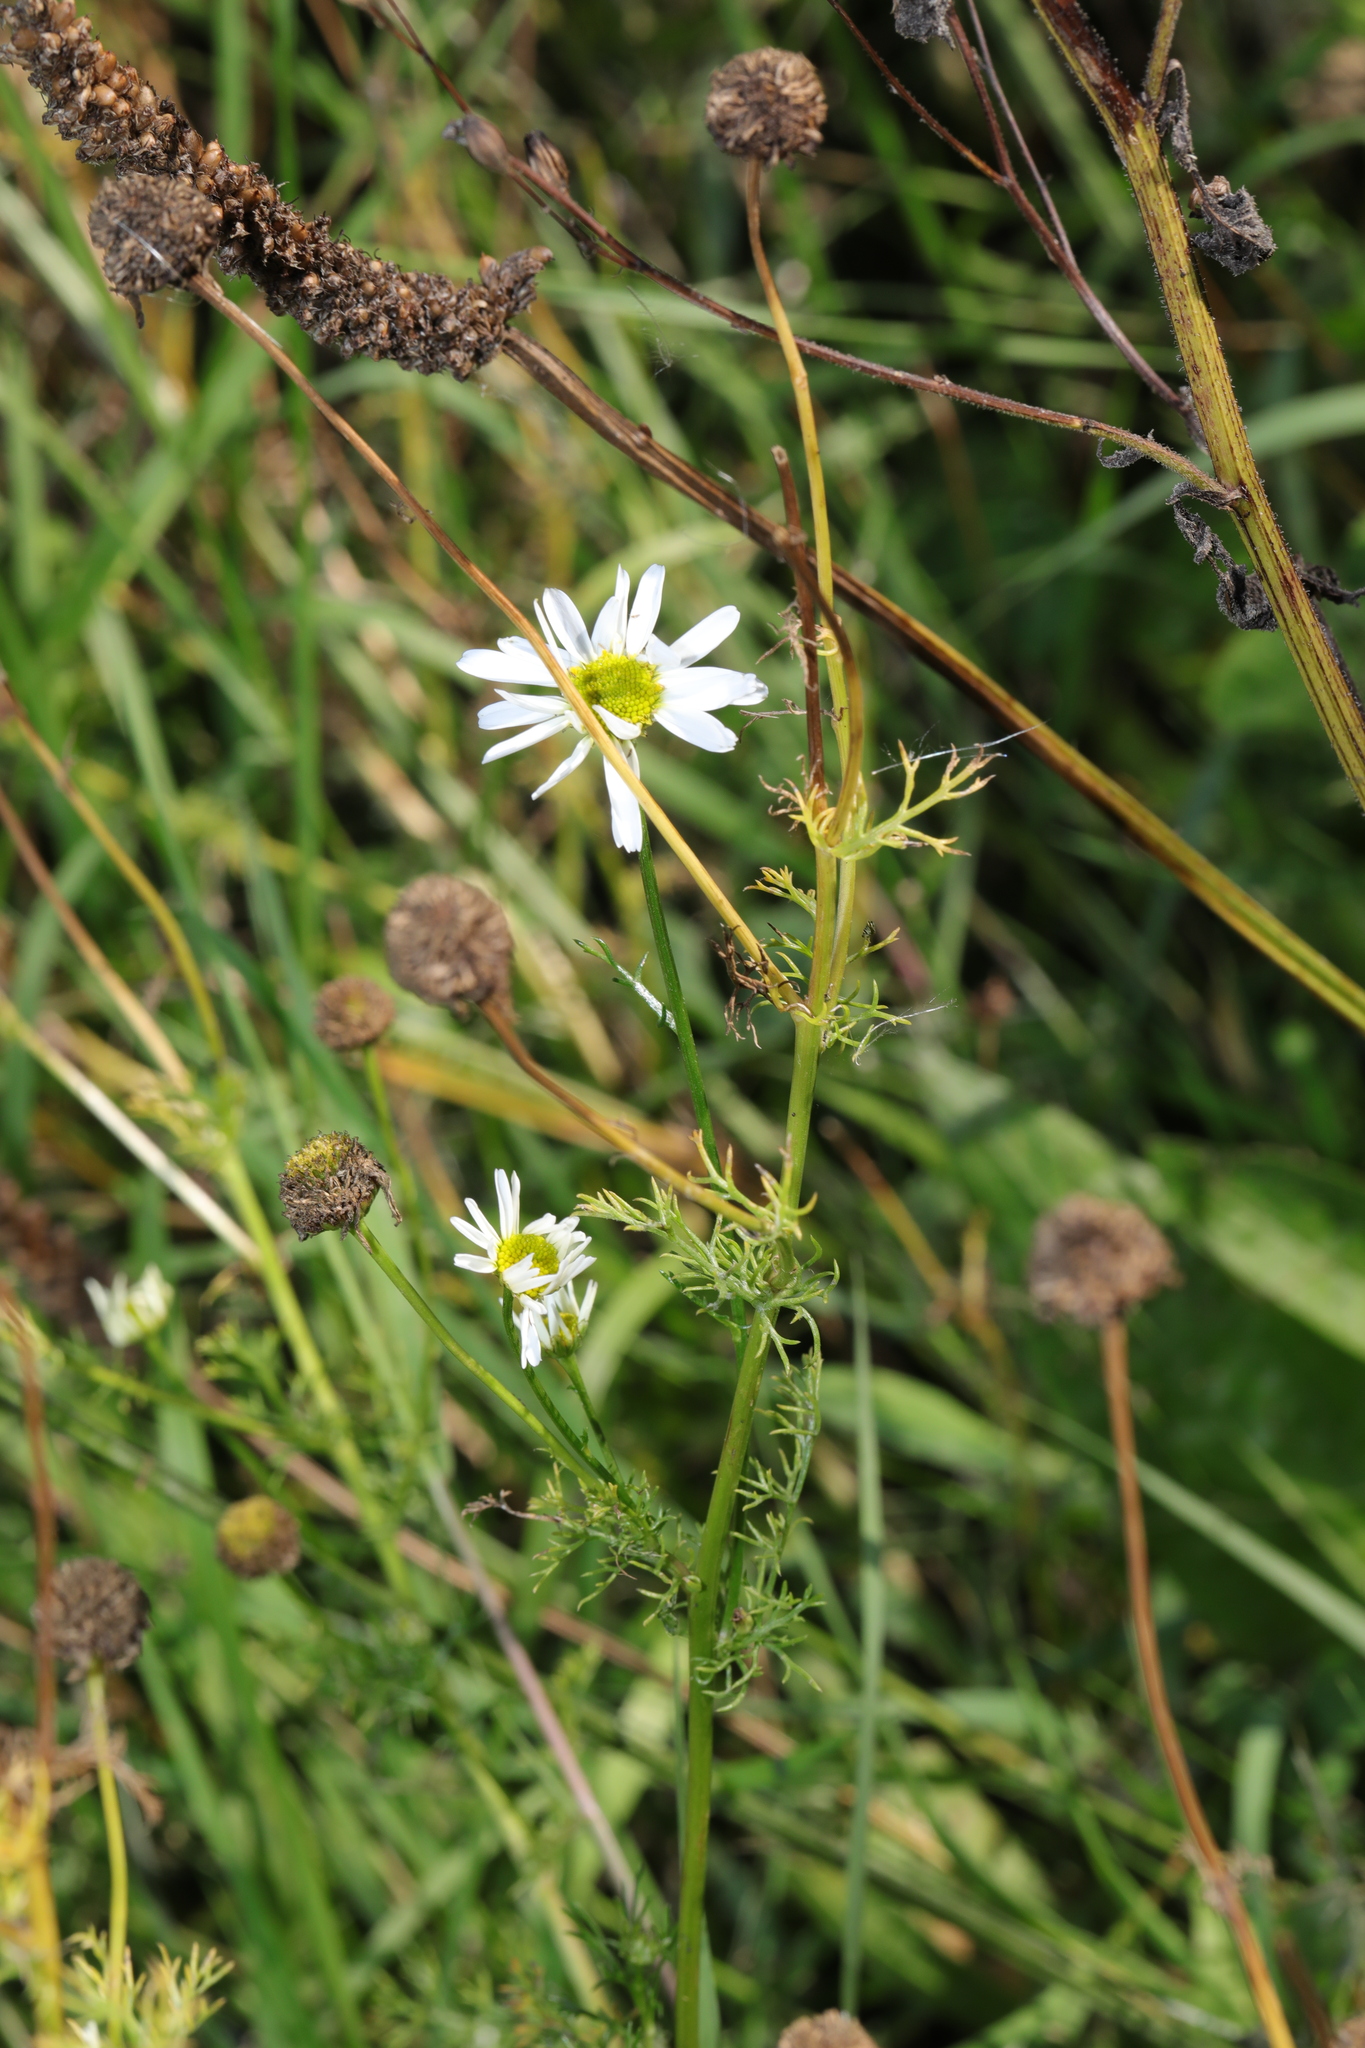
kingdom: Plantae
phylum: Tracheophyta
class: Magnoliopsida
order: Asterales
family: Asteraceae
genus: Tripleurospermum
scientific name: Tripleurospermum inodorum
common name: Scentless mayweed
